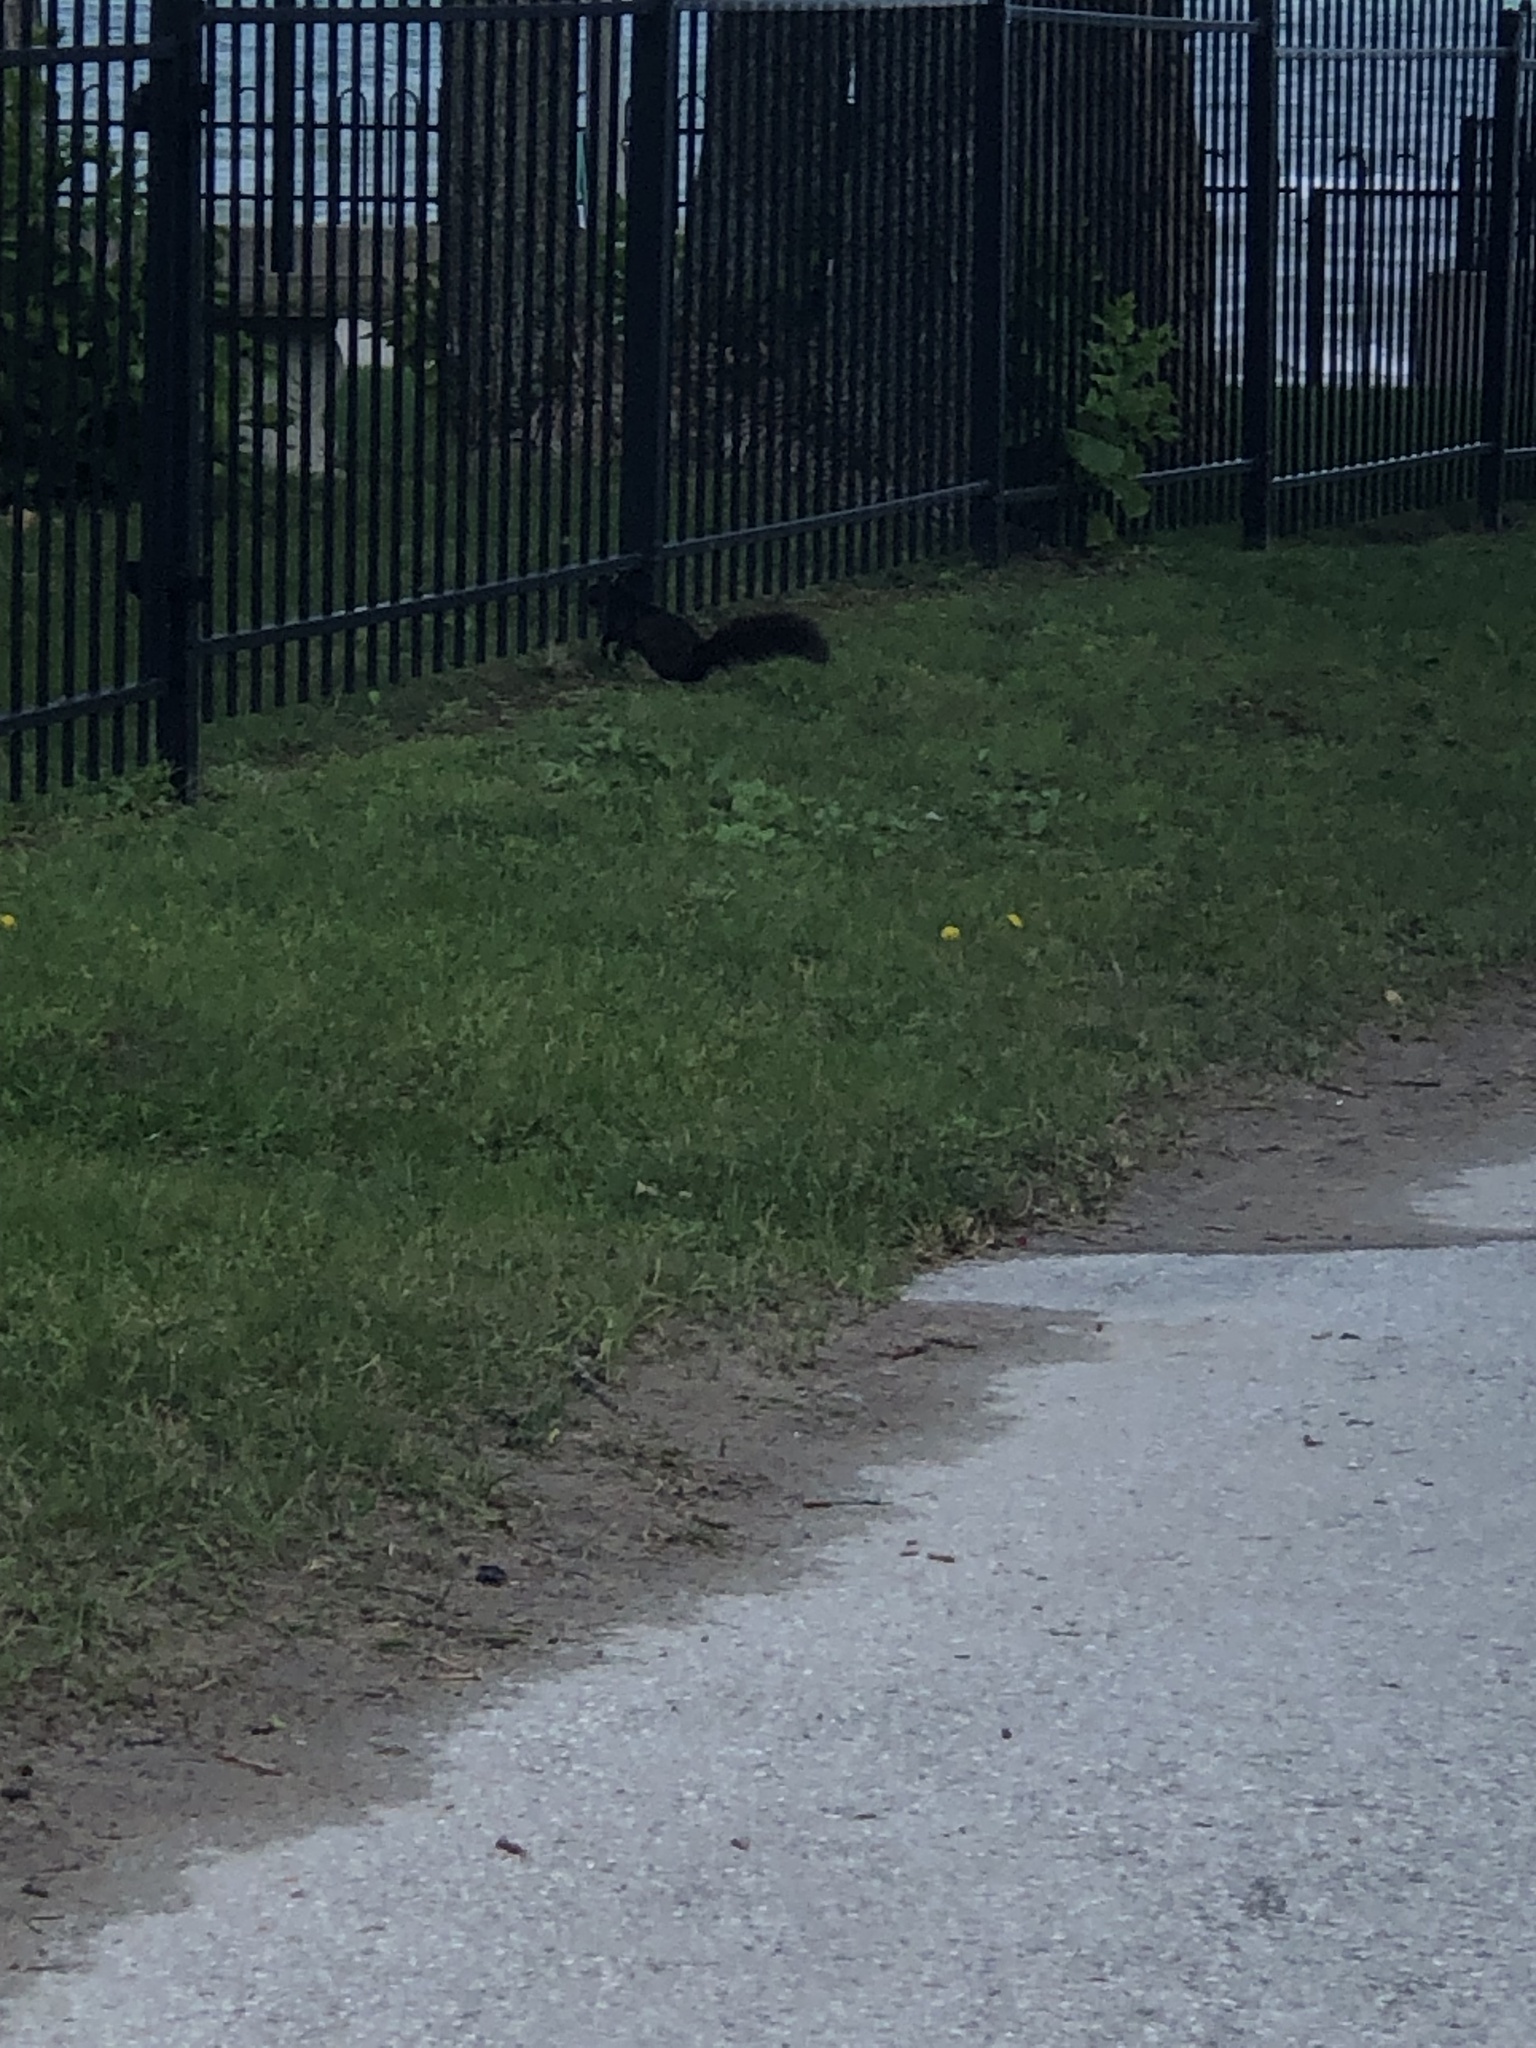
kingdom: Animalia
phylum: Chordata
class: Mammalia
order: Rodentia
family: Sciuridae
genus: Sciurus
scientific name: Sciurus carolinensis
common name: Eastern gray squirrel
